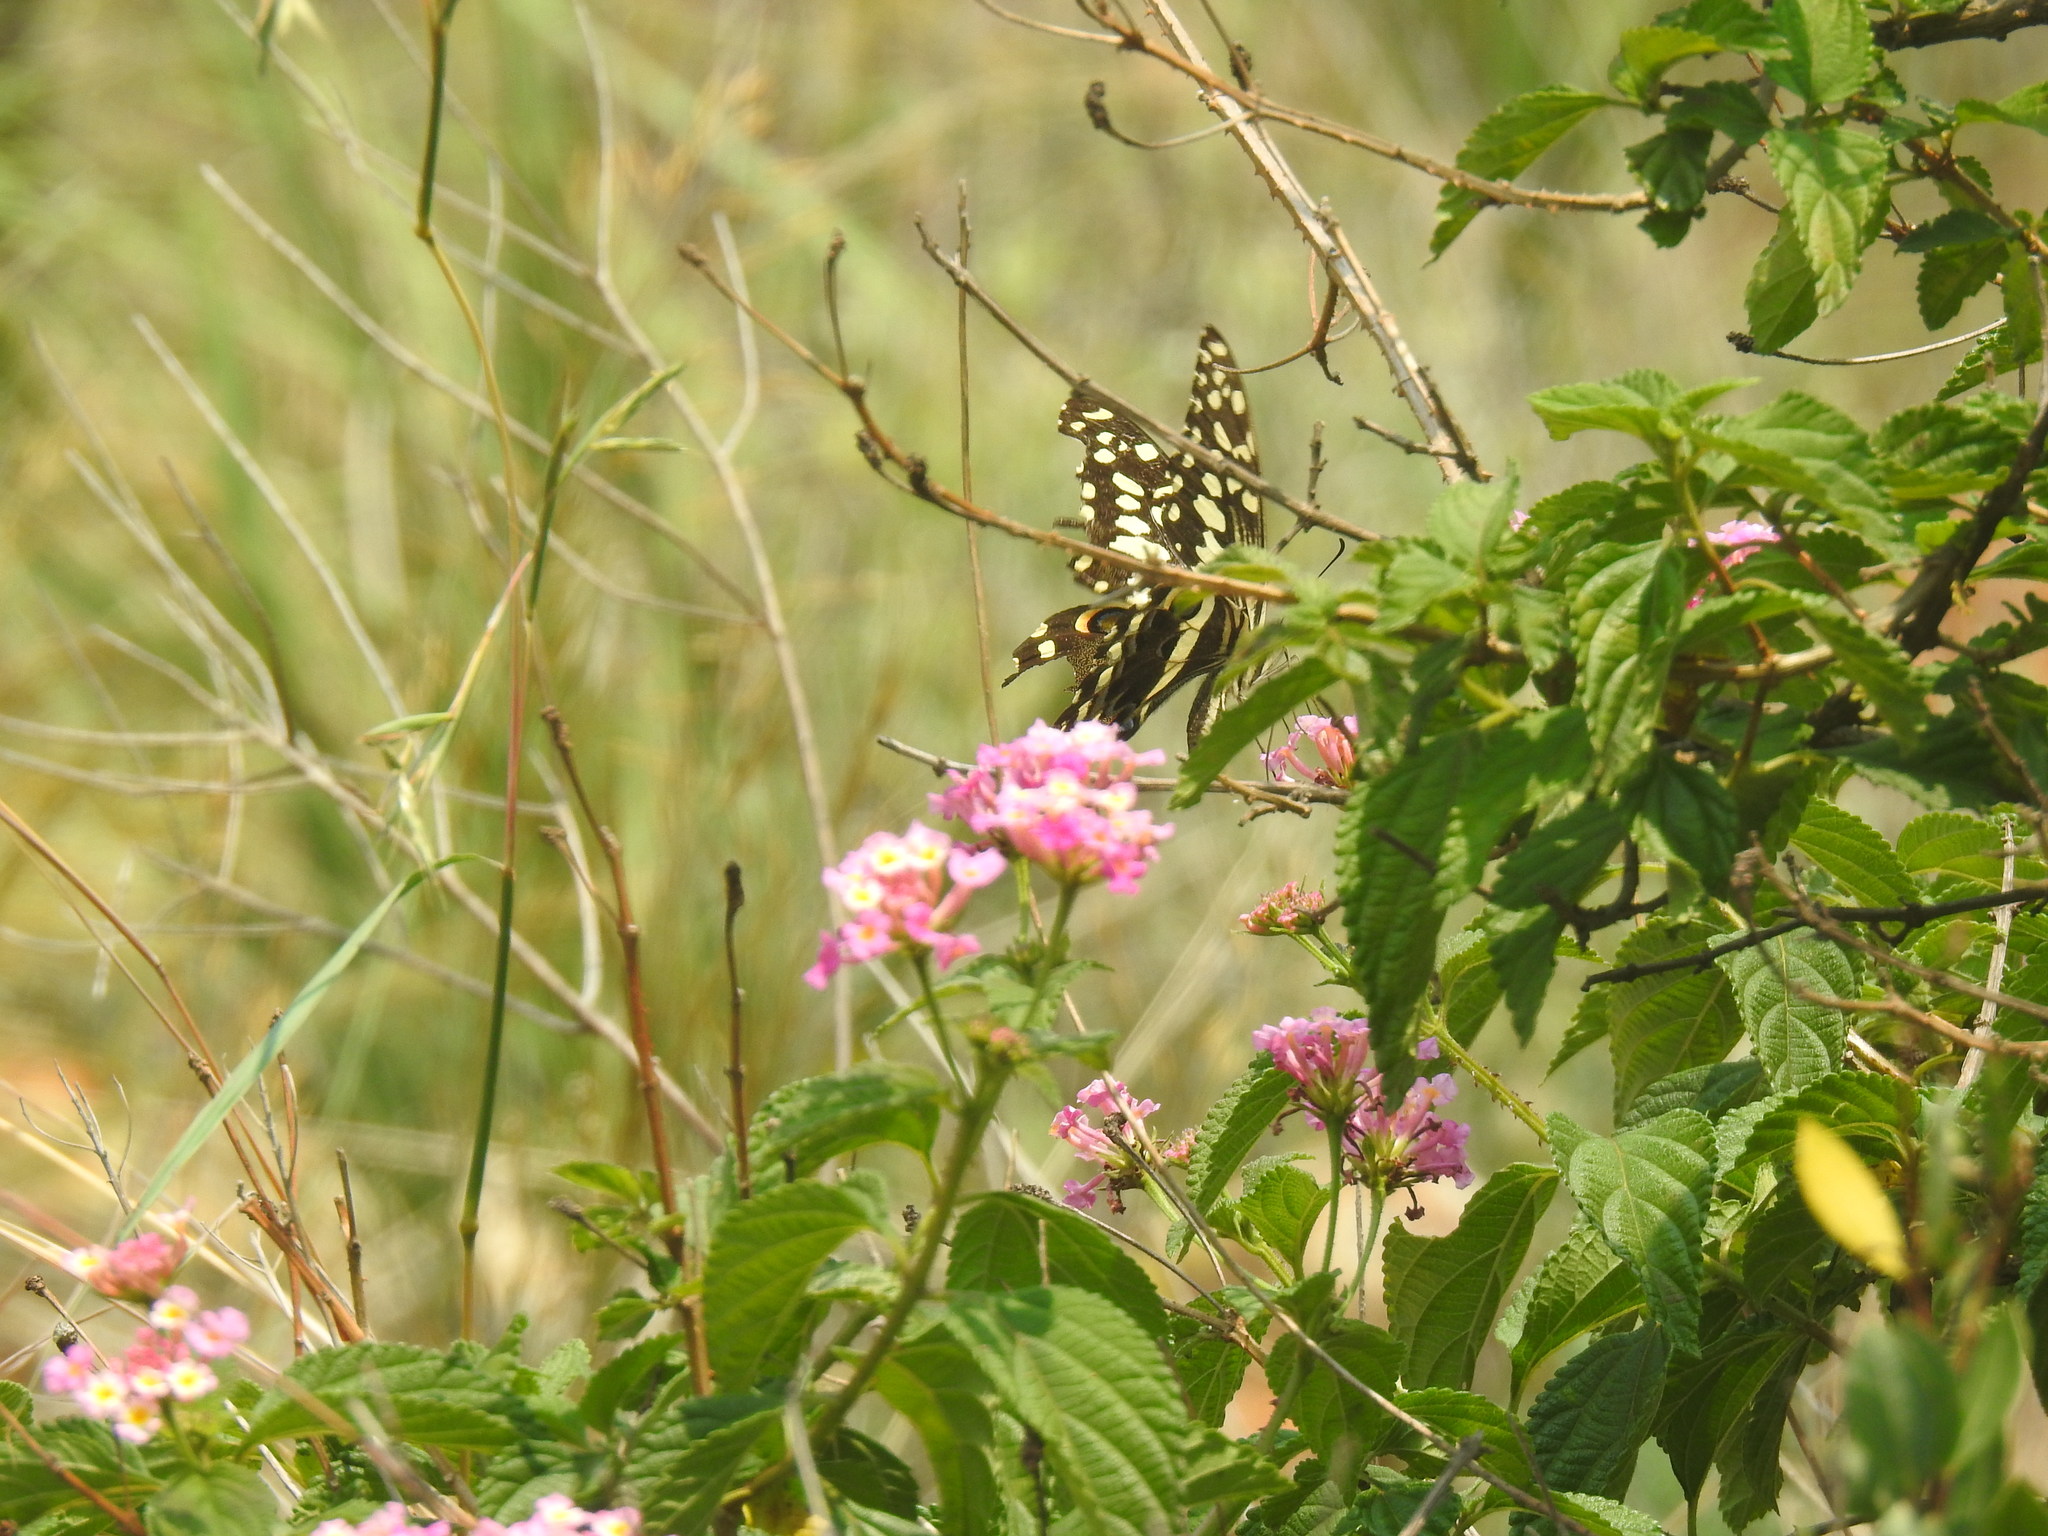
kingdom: Animalia
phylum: Arthropoda
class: Insecta
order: Lepidoptera
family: Papilionidae
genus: Papilio
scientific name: Papilio demodocus
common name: Christmas butterfly
